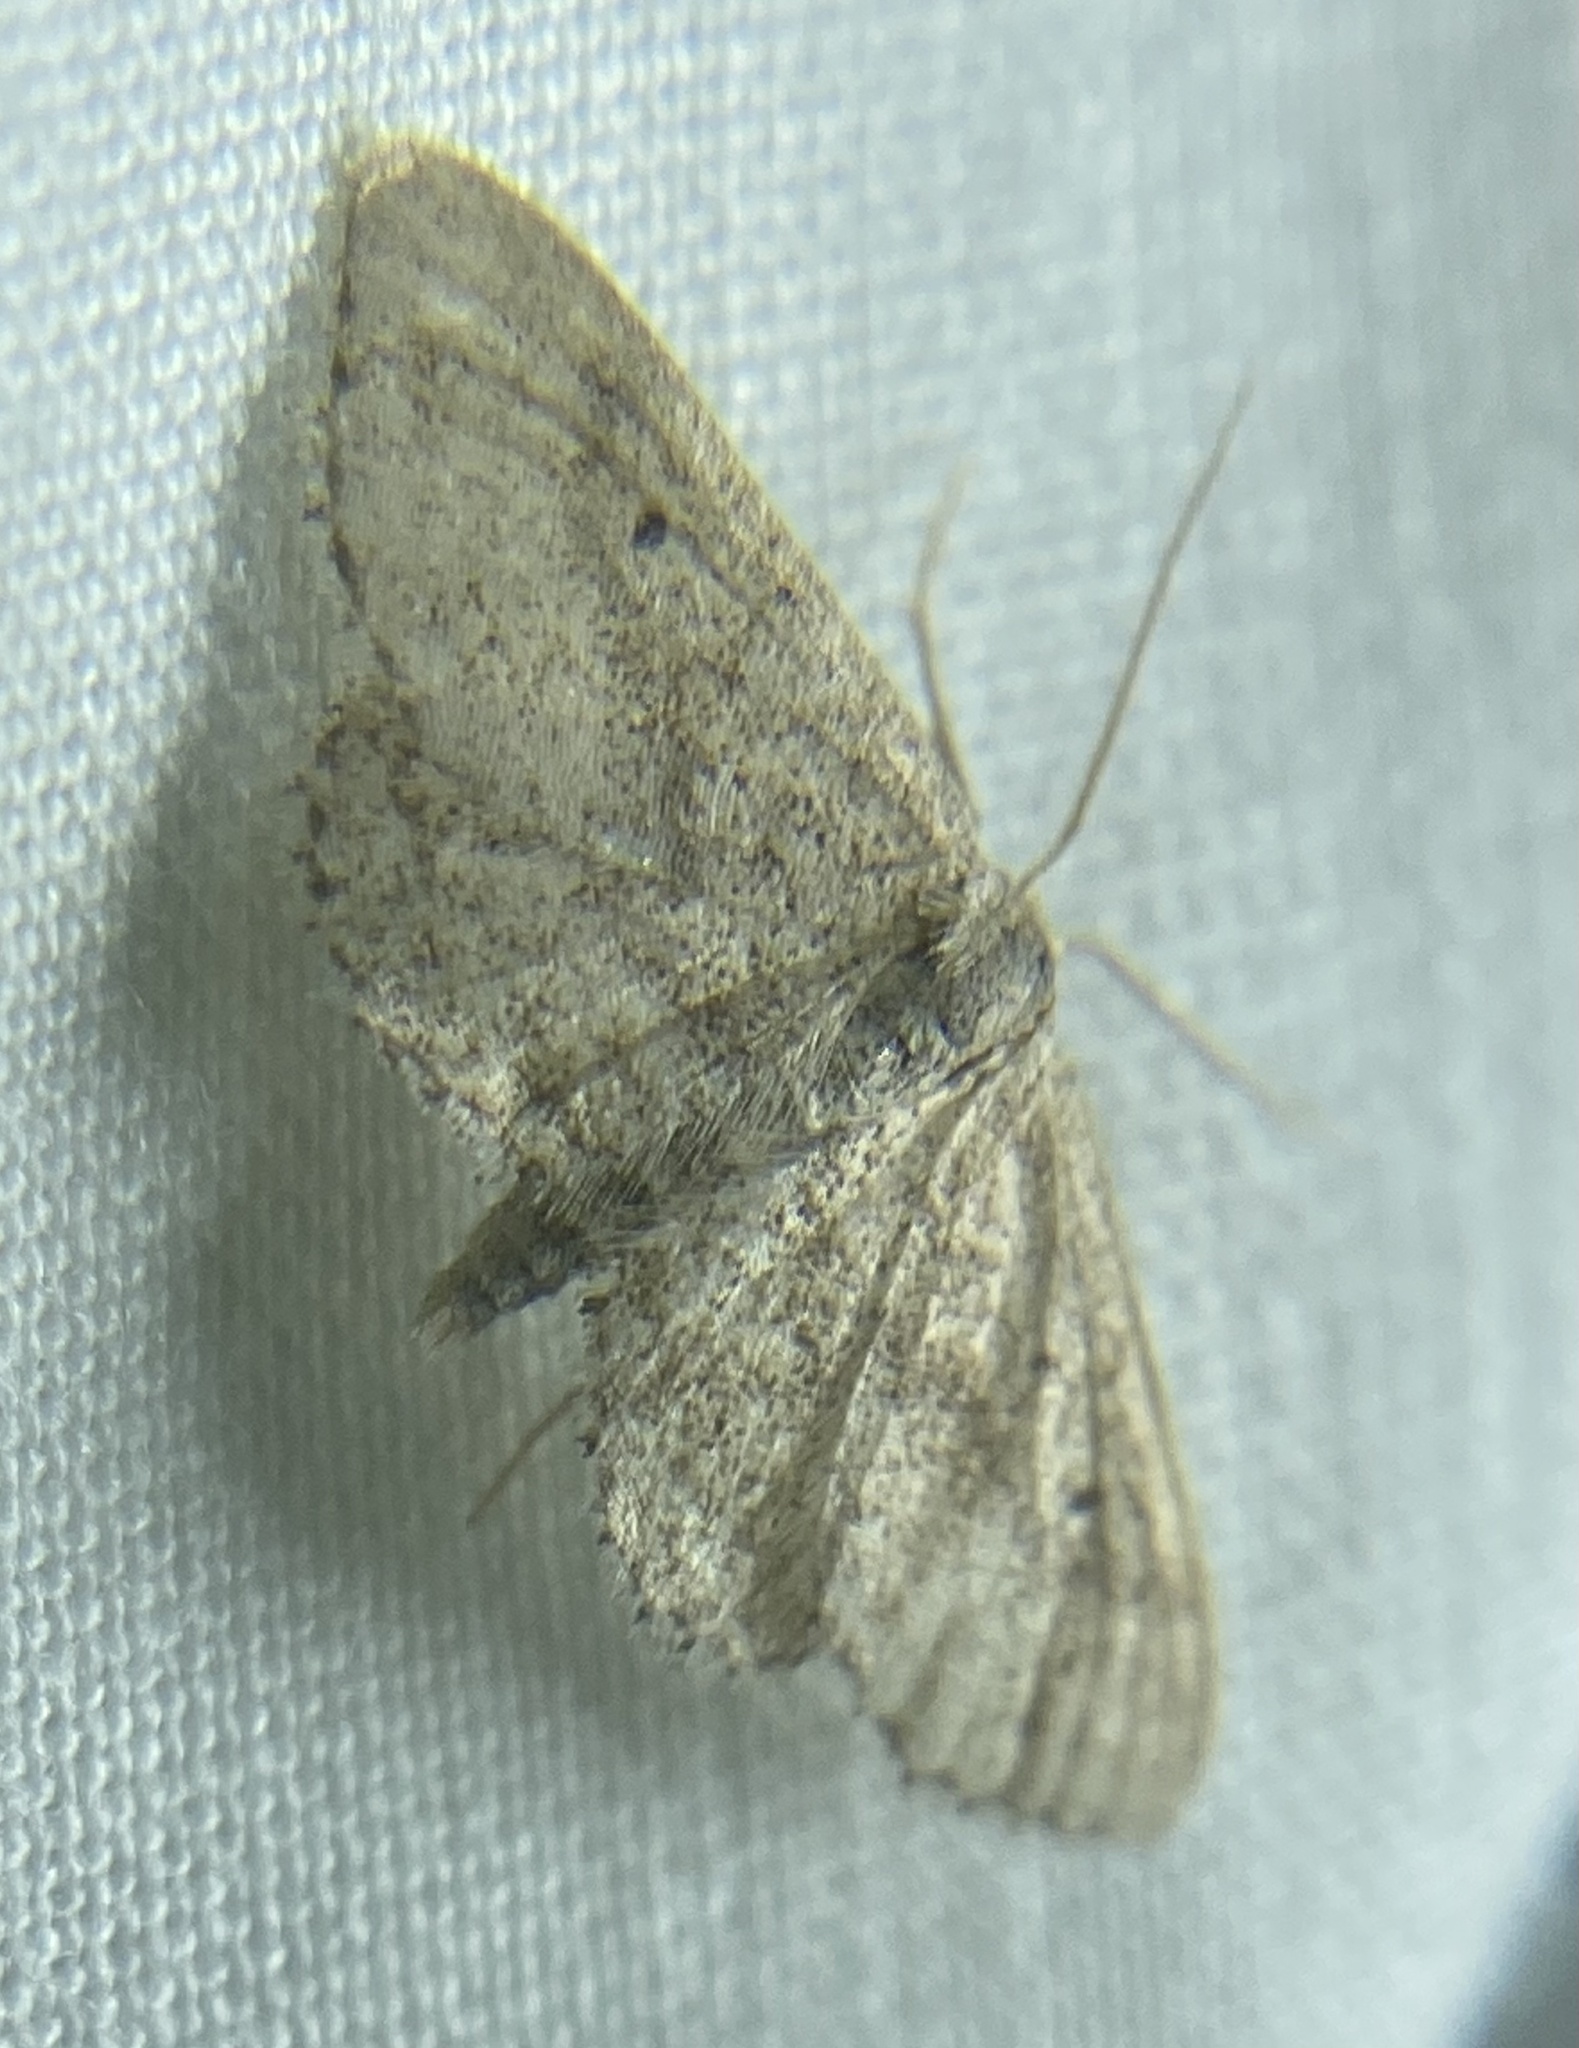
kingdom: Animalia
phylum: Arthropoda
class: Insecta
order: Lepidoptera
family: Geometridae
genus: Lobocleta
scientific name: Lobocleta ossularia
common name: Drab brown wave
